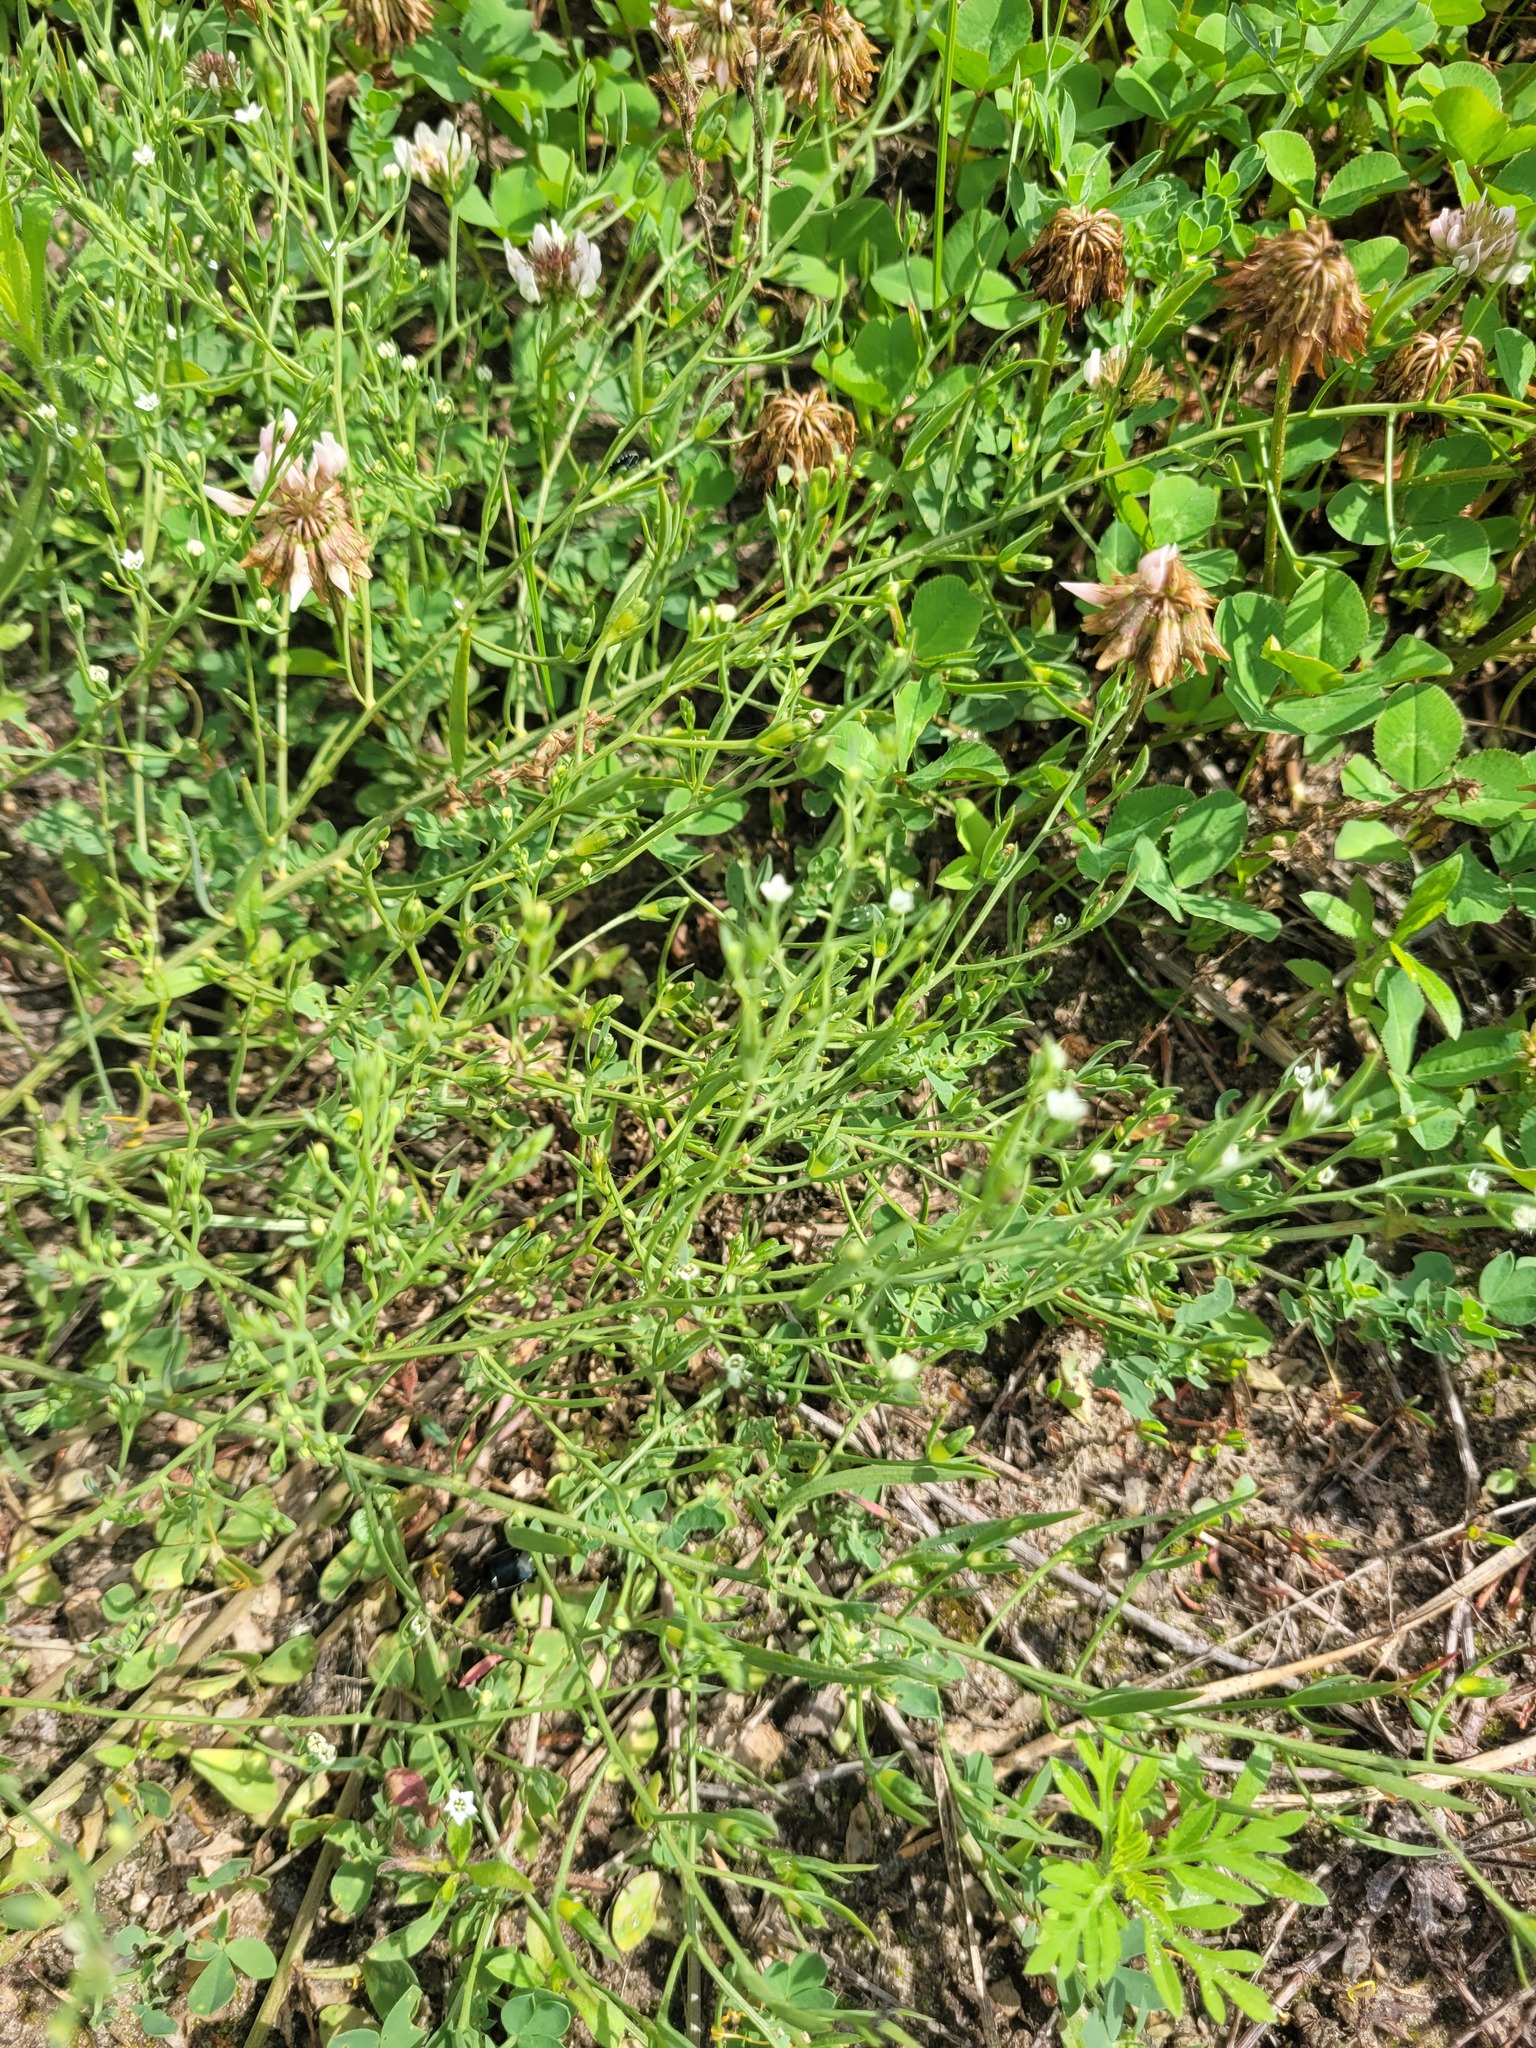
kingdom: Plantae
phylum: Tracheophyta
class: Magnoliopsida
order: Santalales
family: Thesiaceae
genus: Thesium
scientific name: Thesium ramosum
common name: Field thesium
